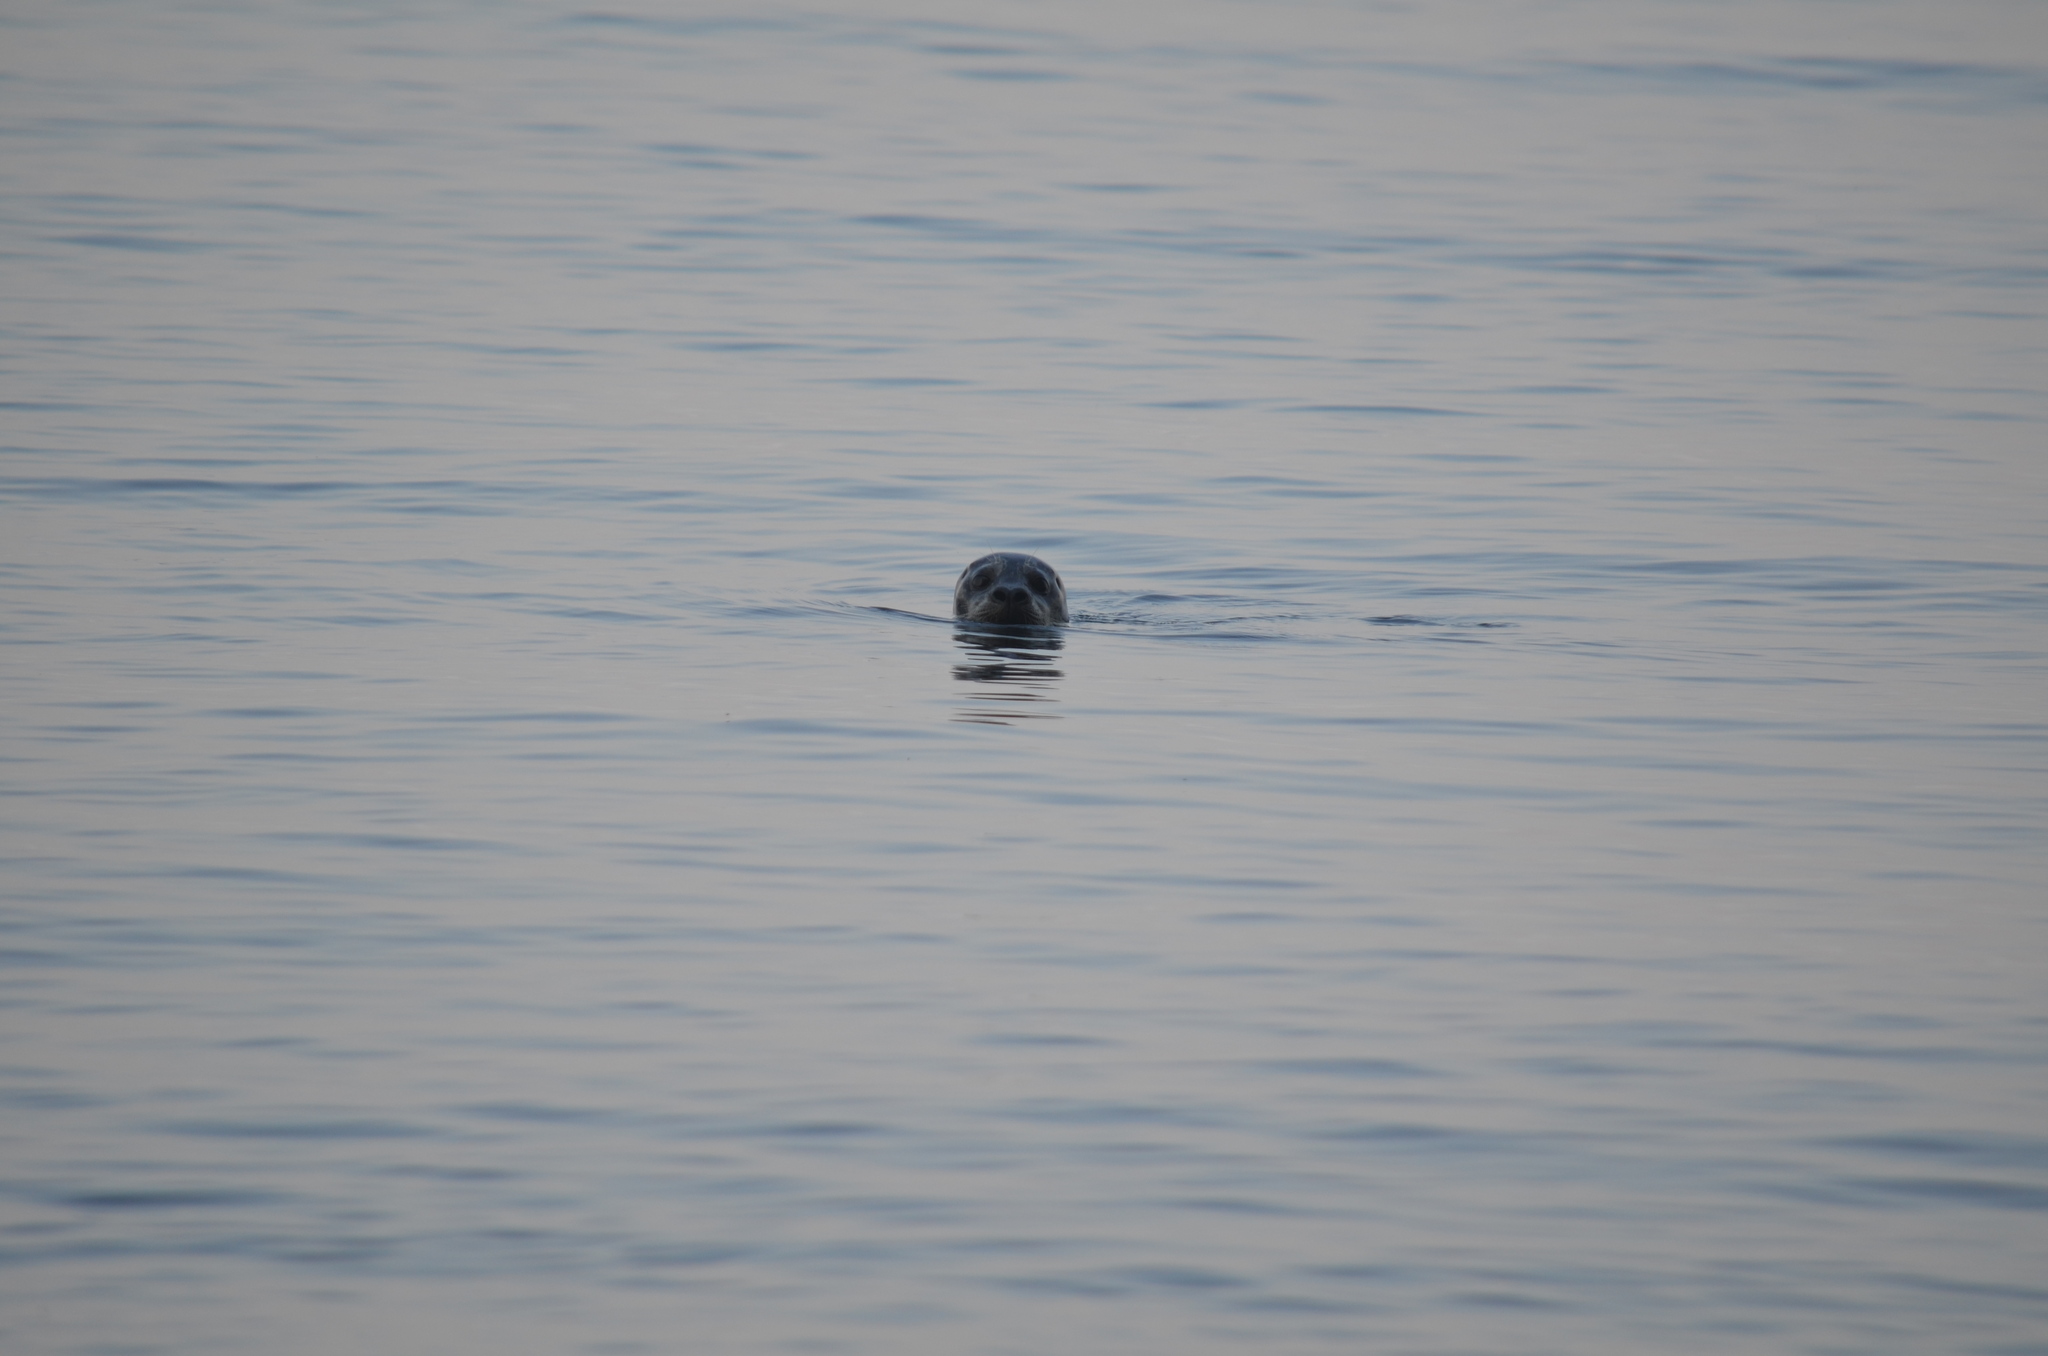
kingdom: Animalia
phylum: Chordata
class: Mammalia
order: Carnivora
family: Phocidae
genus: Phoca
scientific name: Phoca vitulina
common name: Harbor seal
